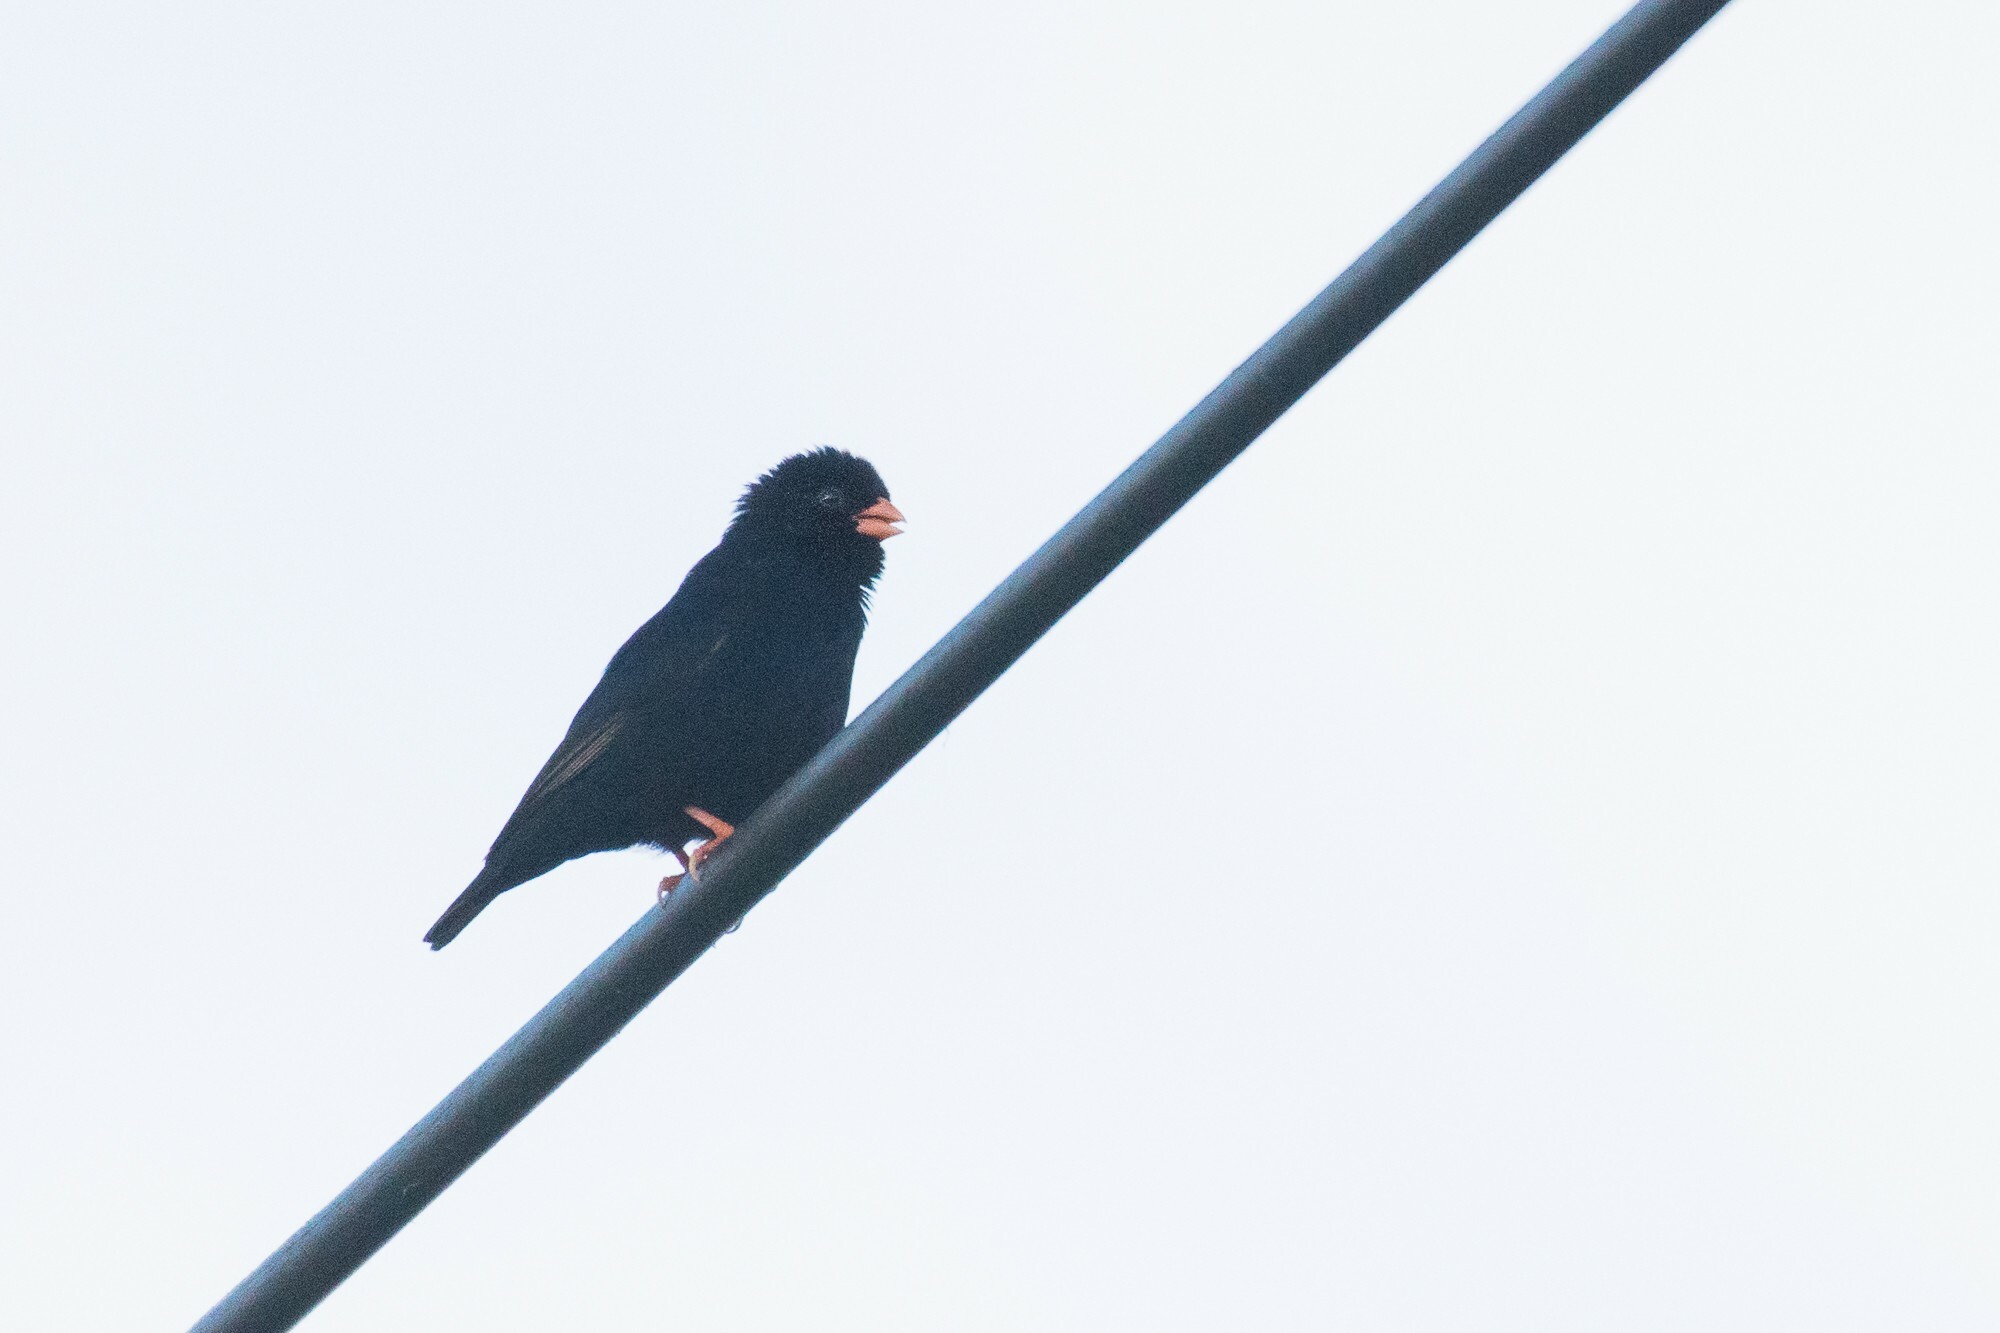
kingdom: Animalia
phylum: Chordata
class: Aves
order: Passeriformes
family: Viduidae
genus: Vidua
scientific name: Vidua chalybeata
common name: Village indigobird
